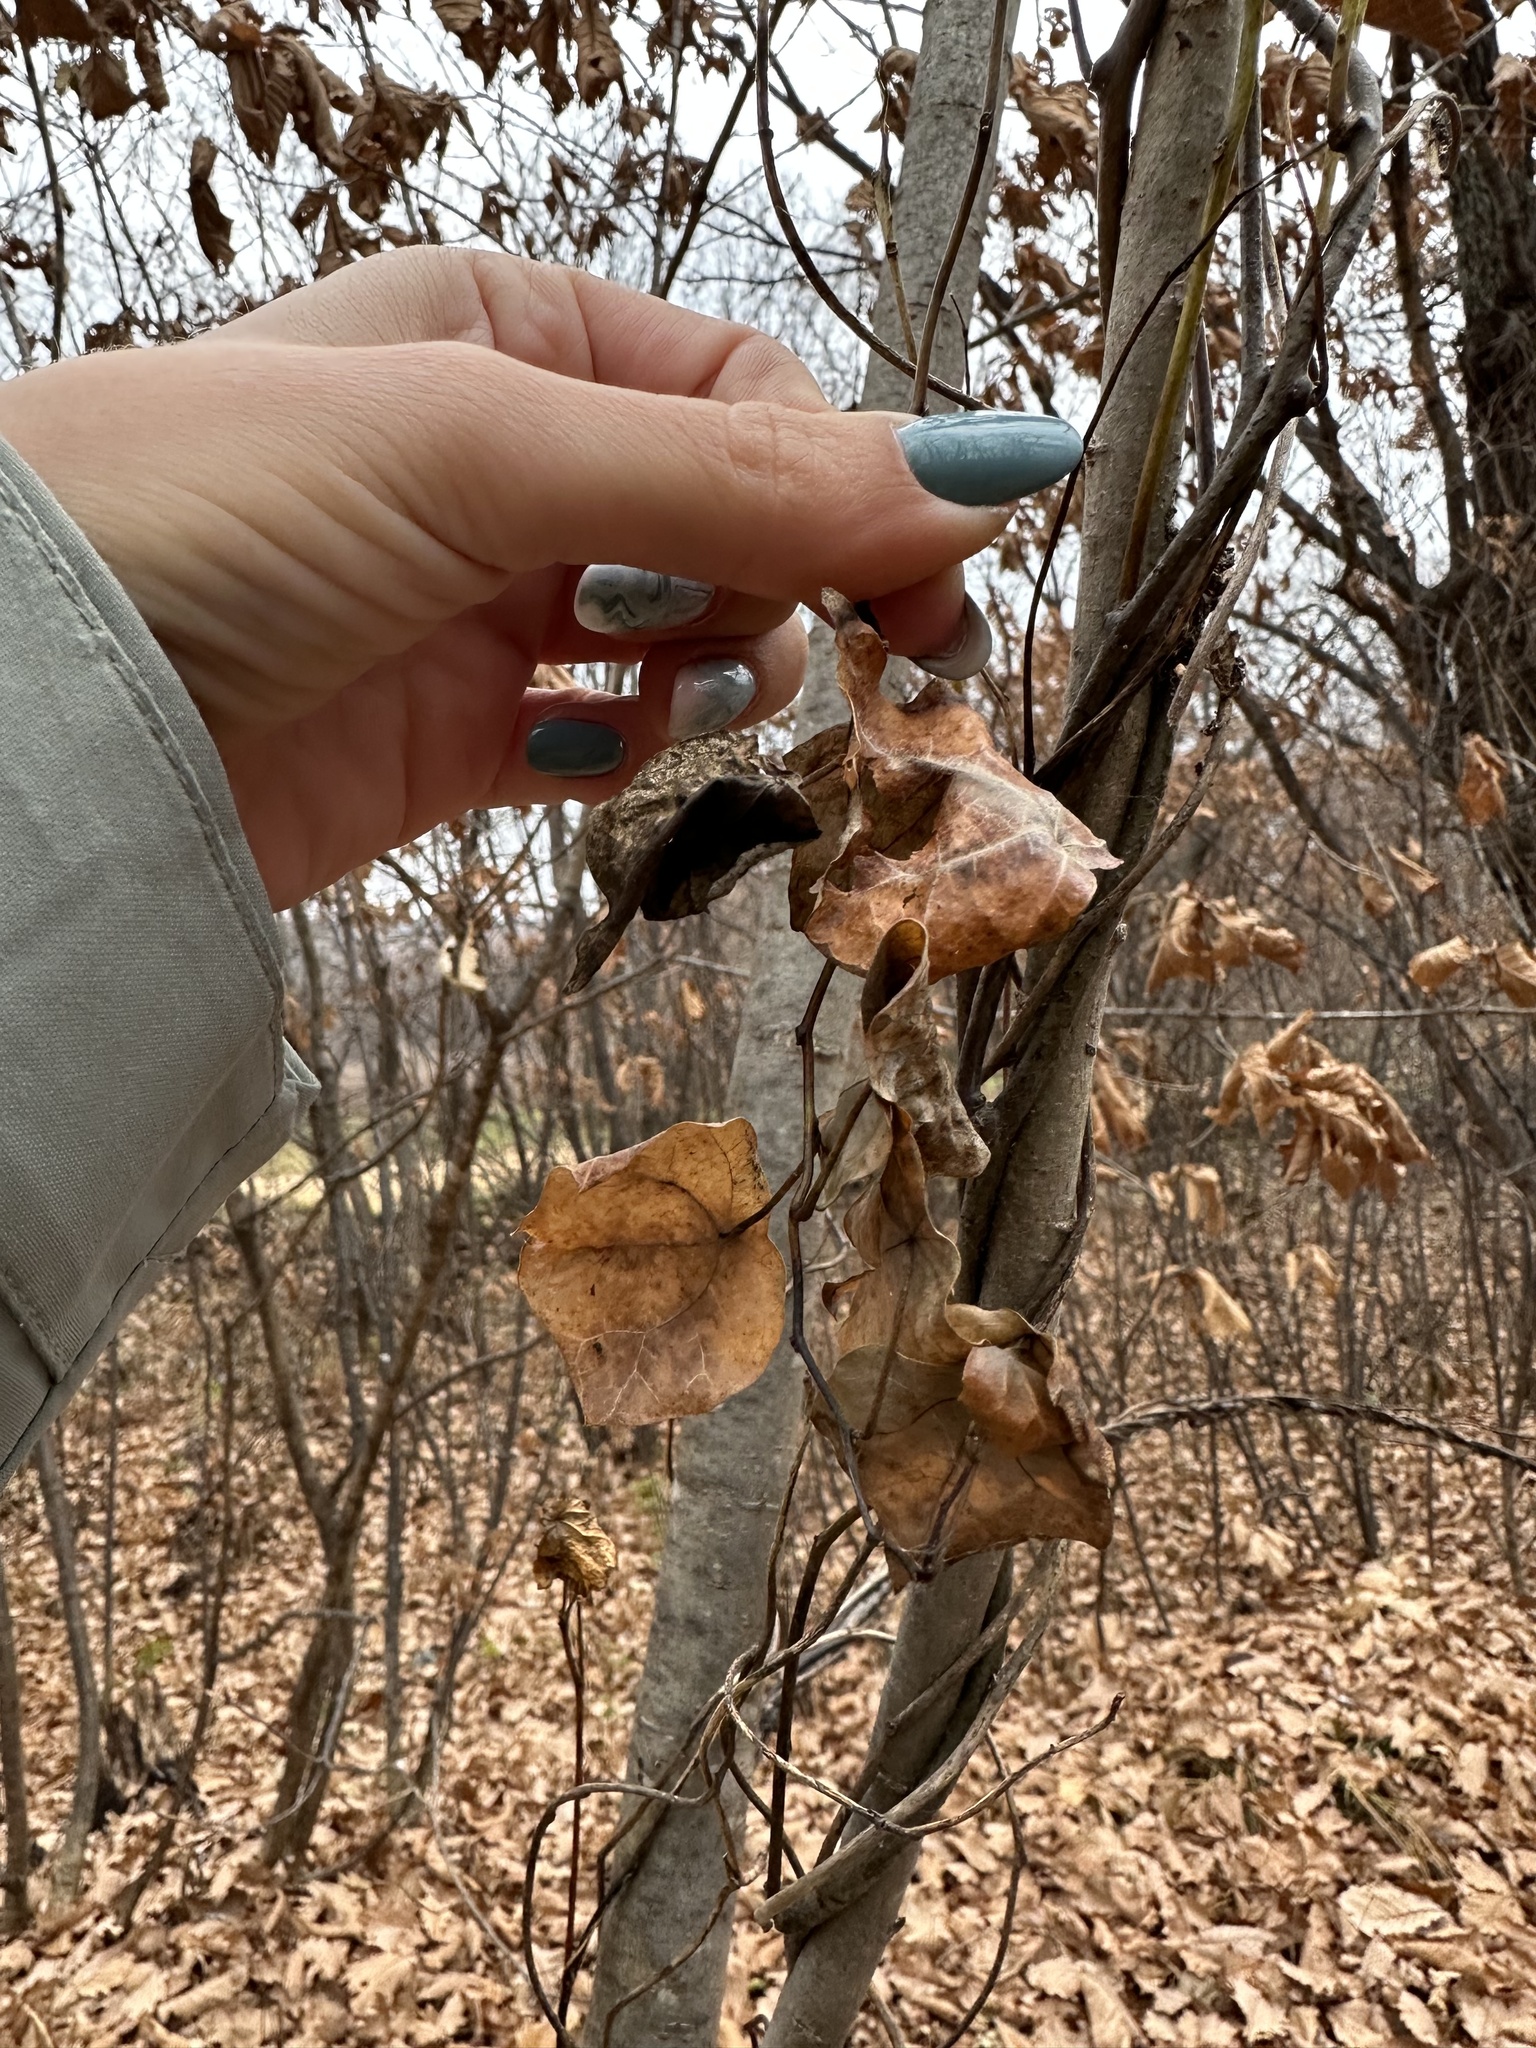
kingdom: Plantae
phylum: Tracheophyta
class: Magnoliopsida
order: Ranunculales
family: Menispermaceae
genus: Menispermum
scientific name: Menispermum dauricum
